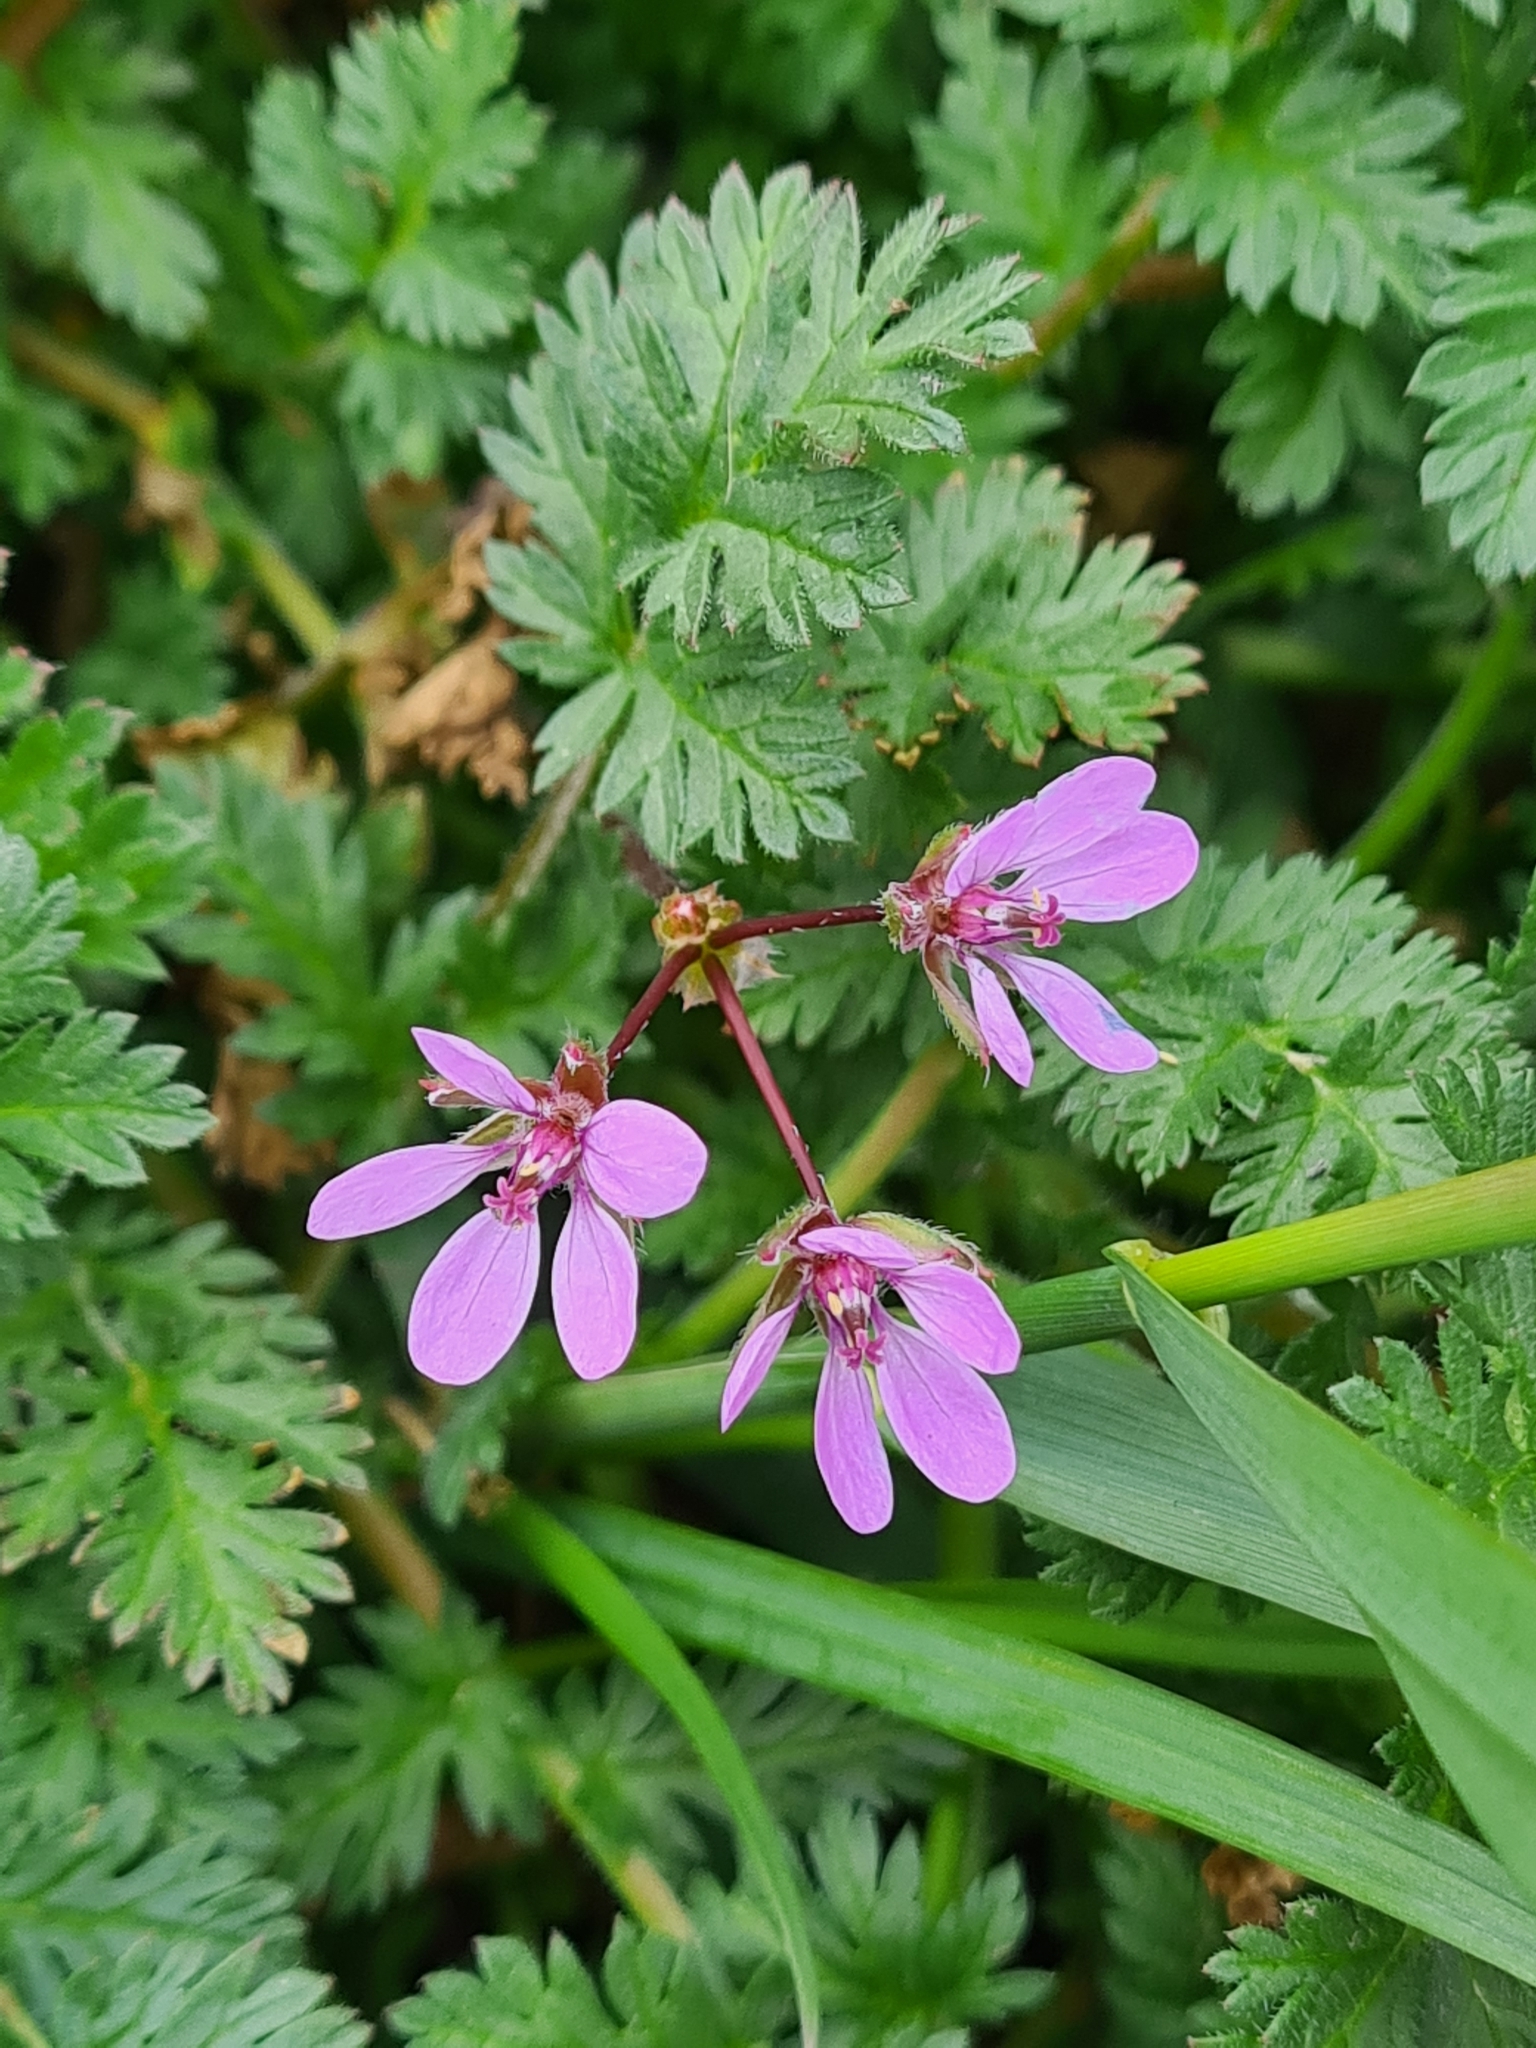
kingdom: Plantae
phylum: Tracheophyta
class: Magnoliopsida
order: Geraniales
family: Geraniaceae
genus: Erodium
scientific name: Erodium cicutarium
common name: Common stork's-bill
